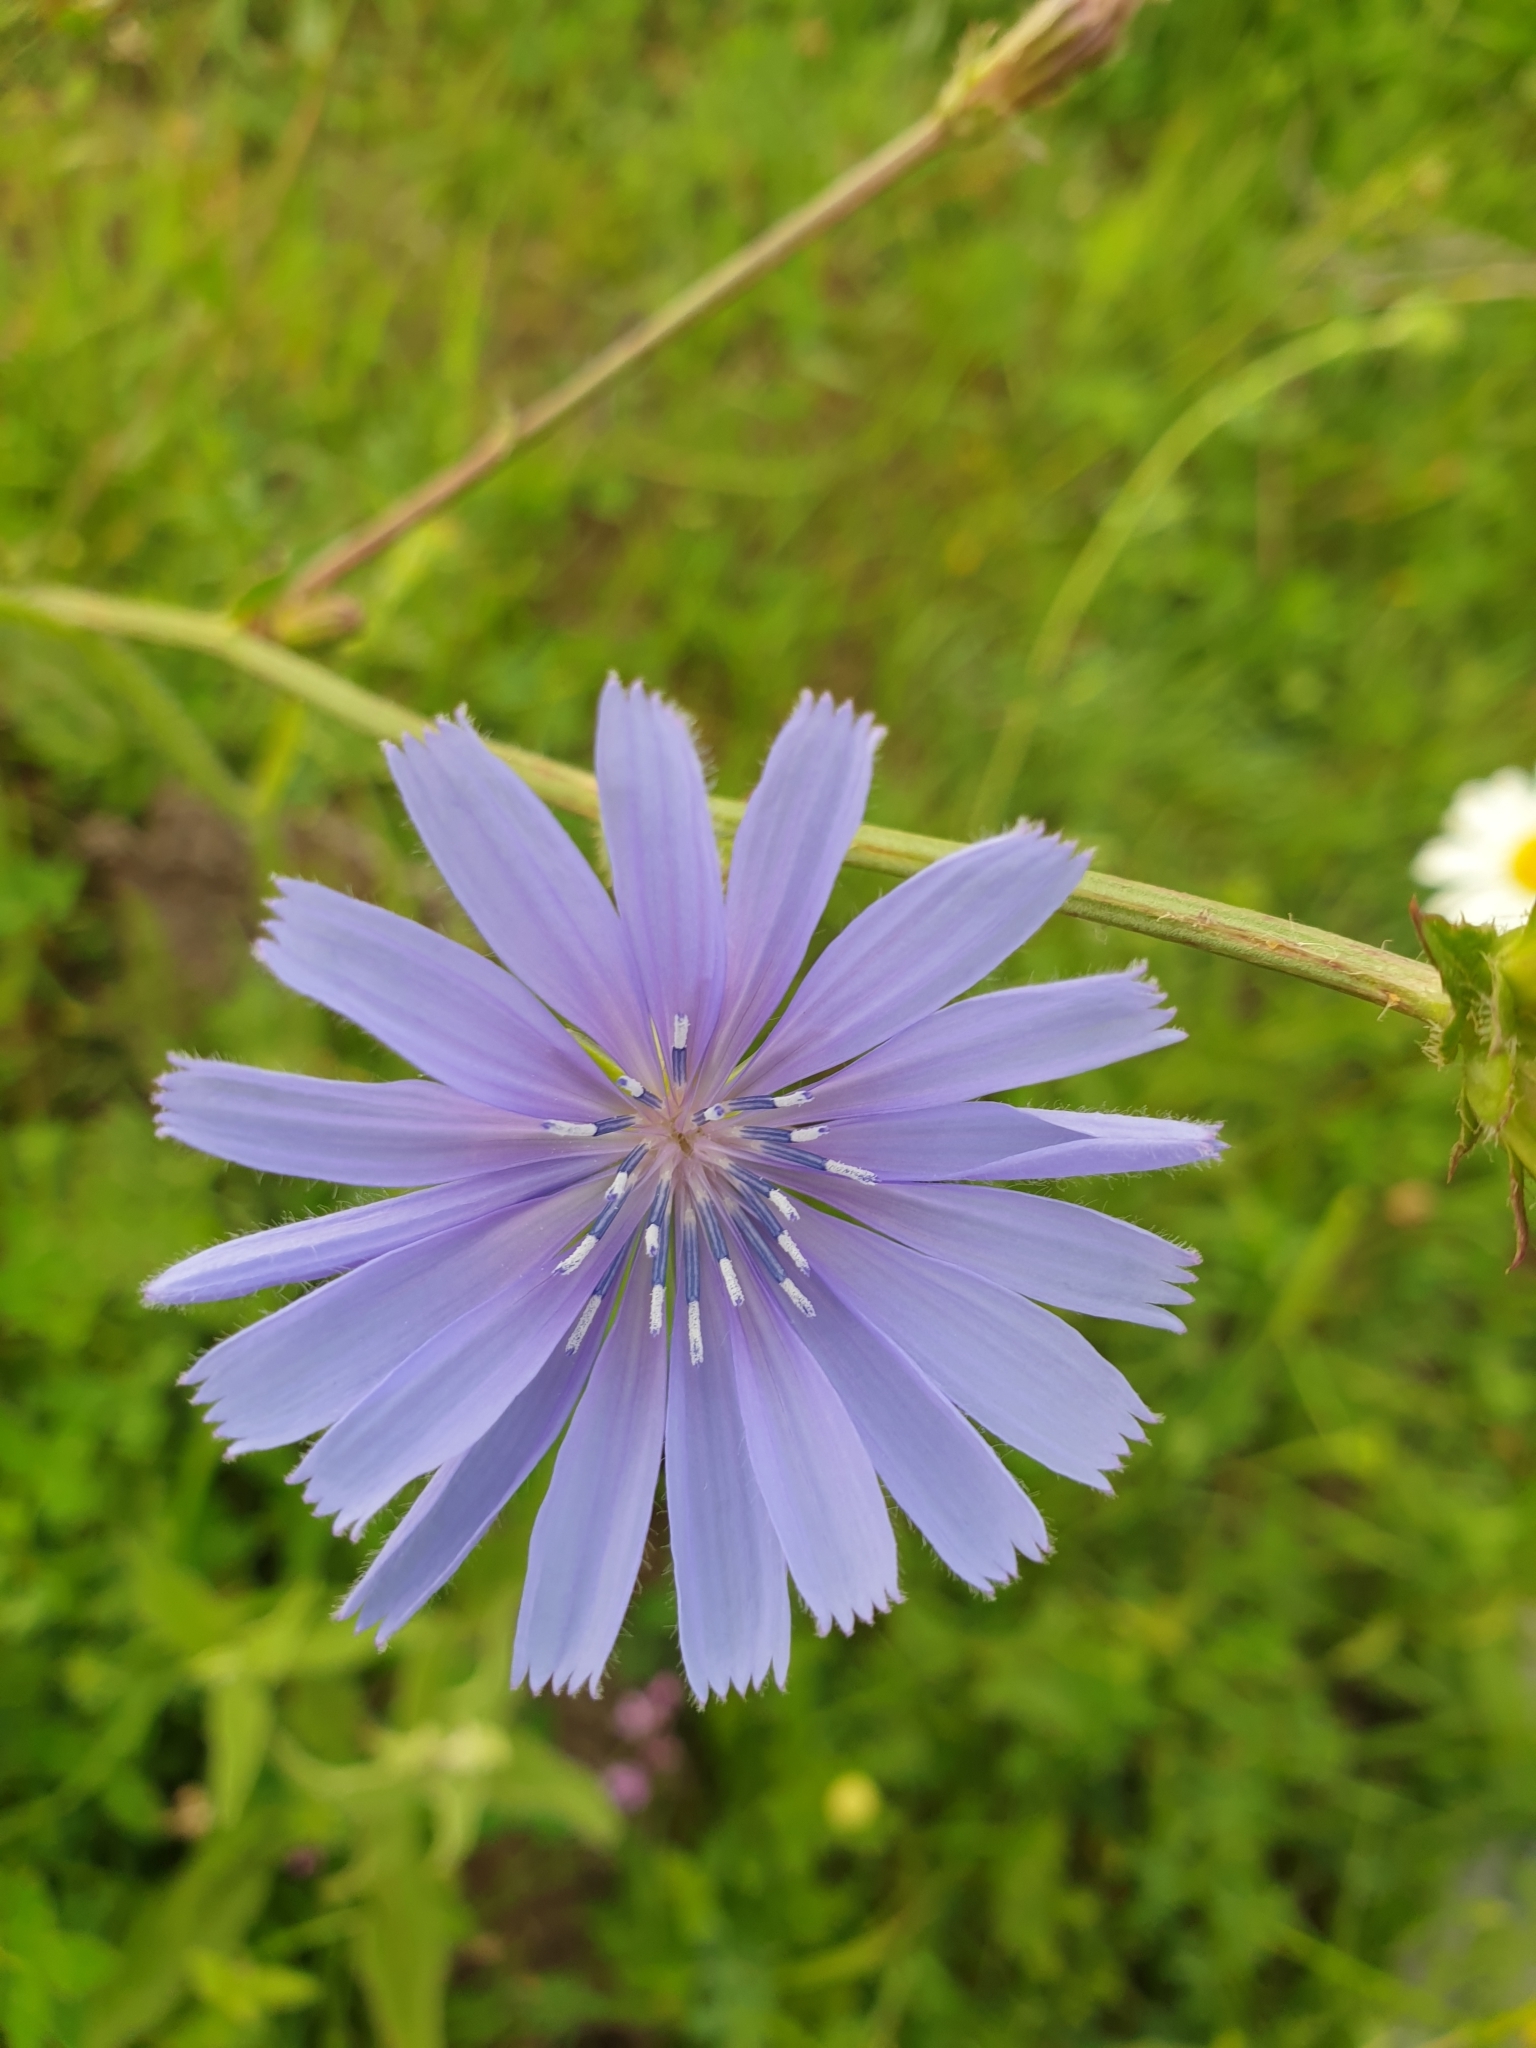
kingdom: Plantae
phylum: Tracheophyta
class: Magnoliopsida
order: Asterales
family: Asteraceae
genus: Cichorium
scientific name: Cichorium intybus
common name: Chicory
